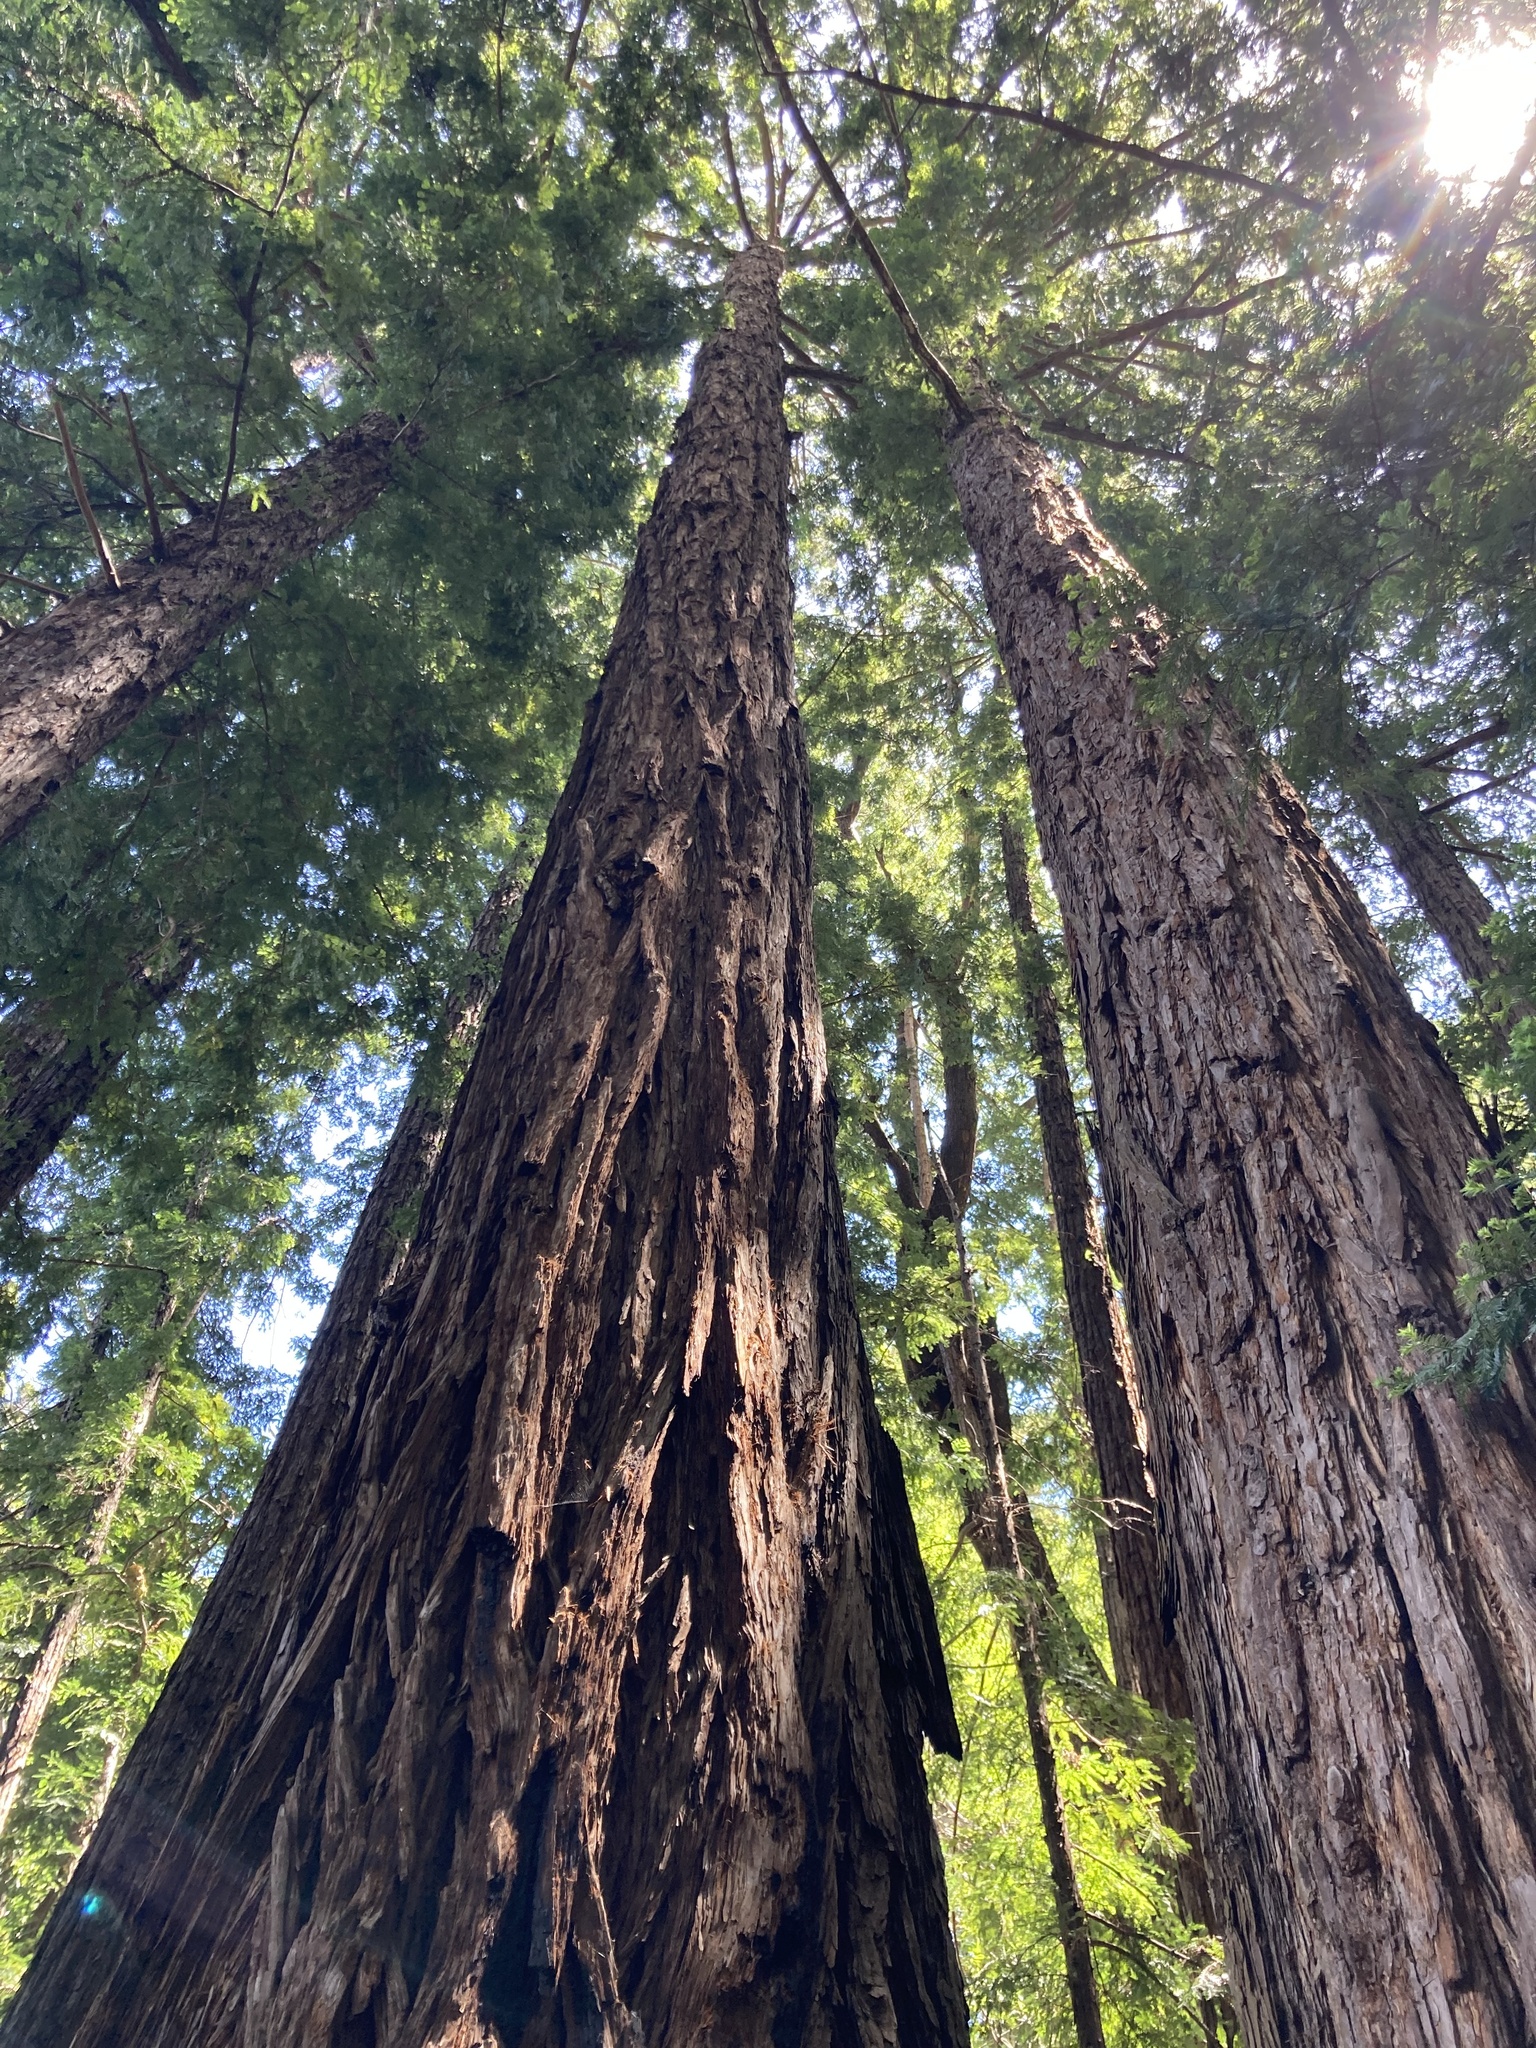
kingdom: Plantae
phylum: Tracheophyta
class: Pinopsida
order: Pinales
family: Cupressaceae
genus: Sequoia
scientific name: Sequoia sempervirens
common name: Coast redwood
